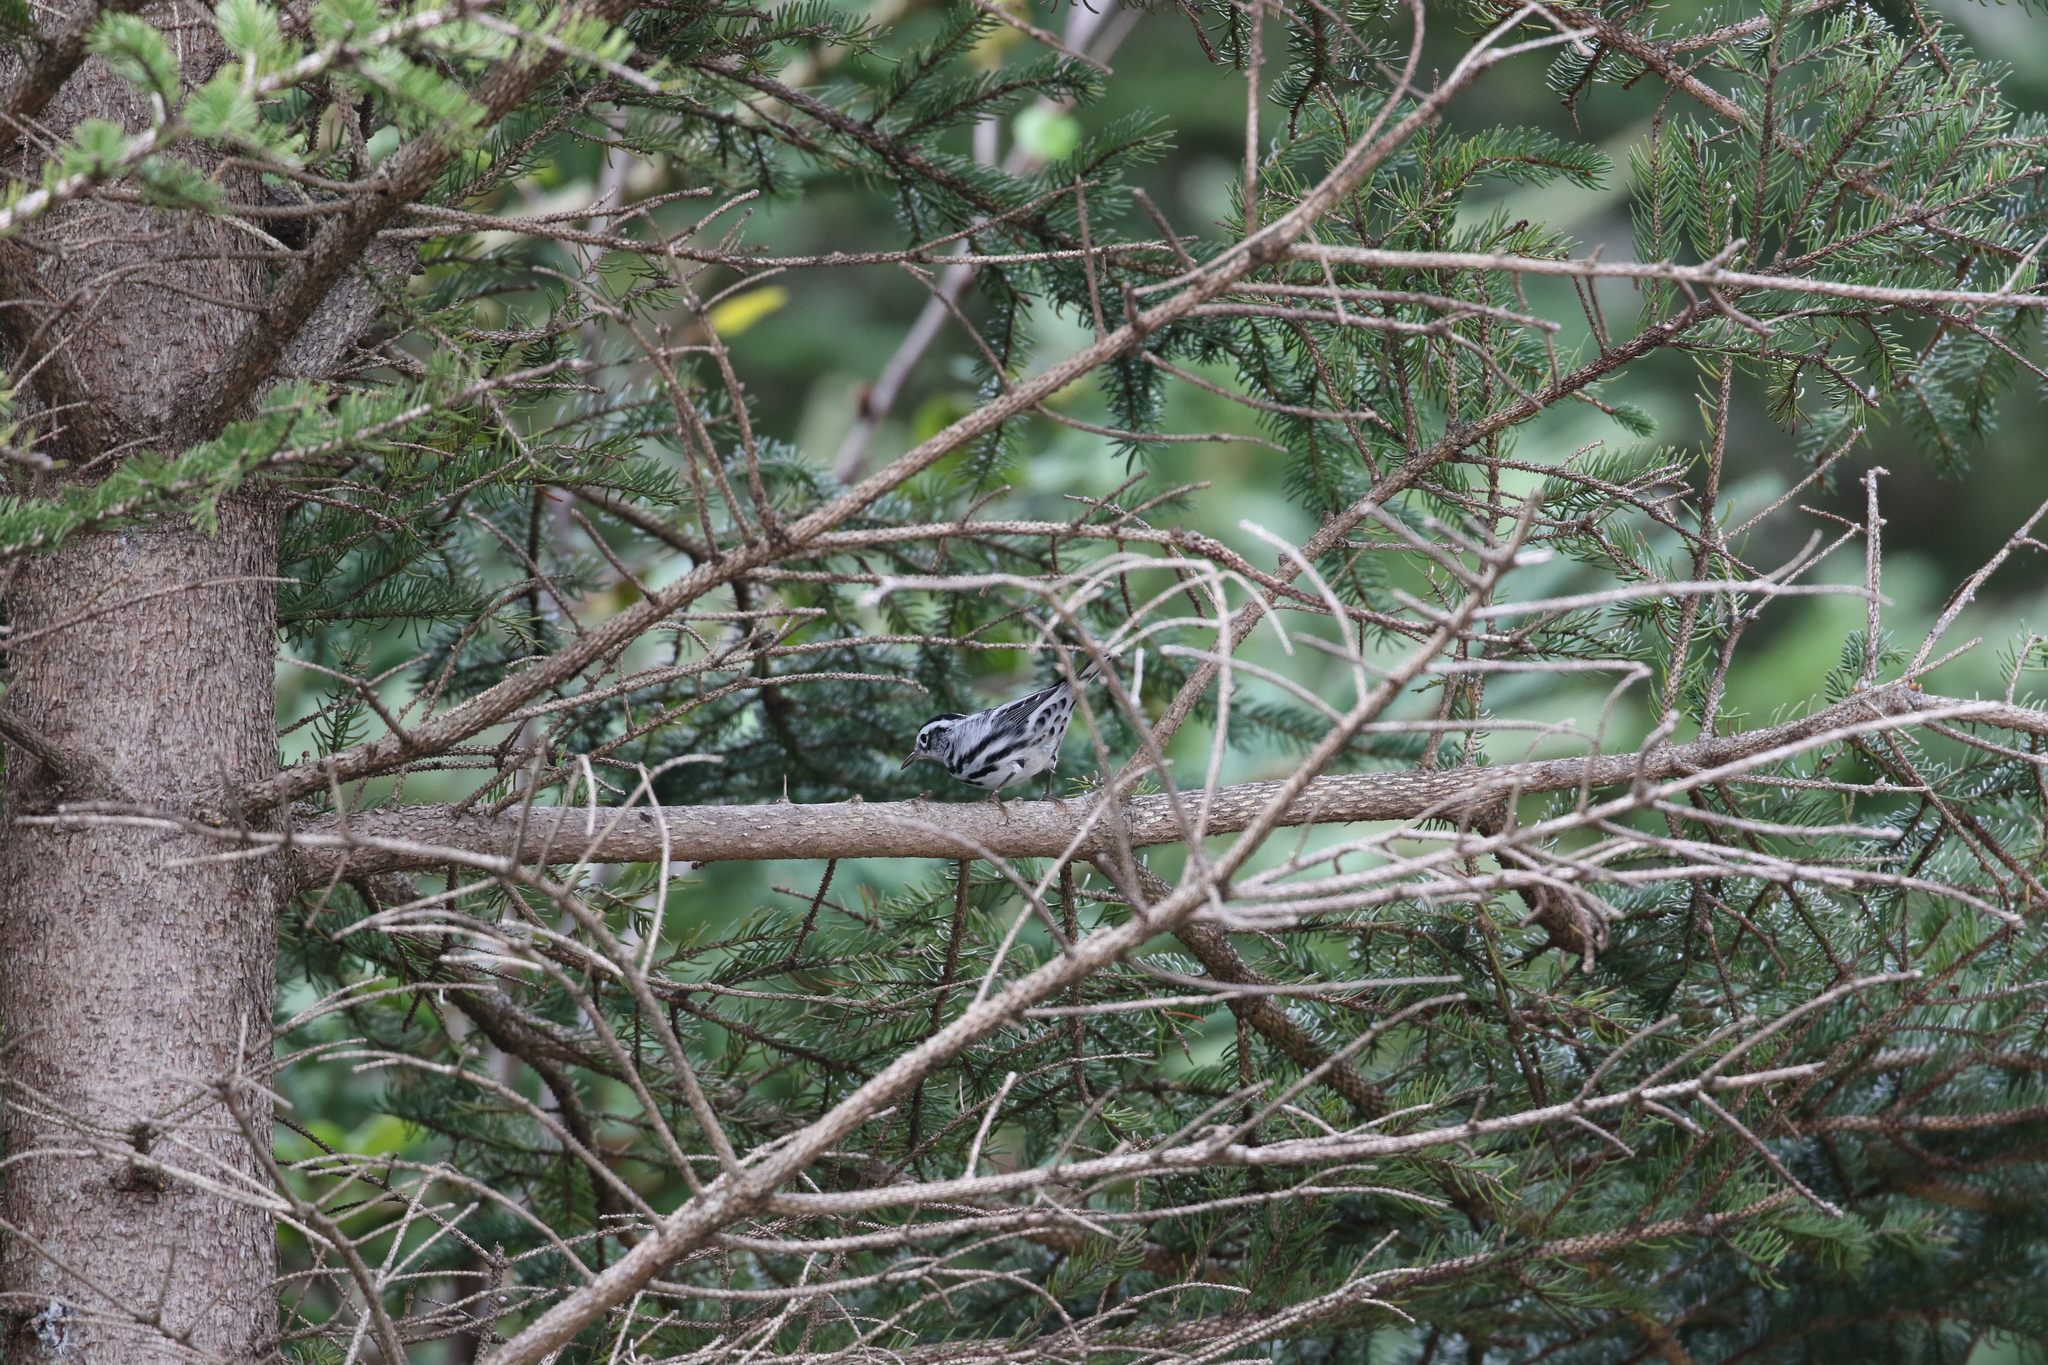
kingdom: Animalia
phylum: Chordata
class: Aves
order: Passeriformes
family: Parulidae
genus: Mniotilta
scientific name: Mniotilta varia
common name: Black-and-white warbler
